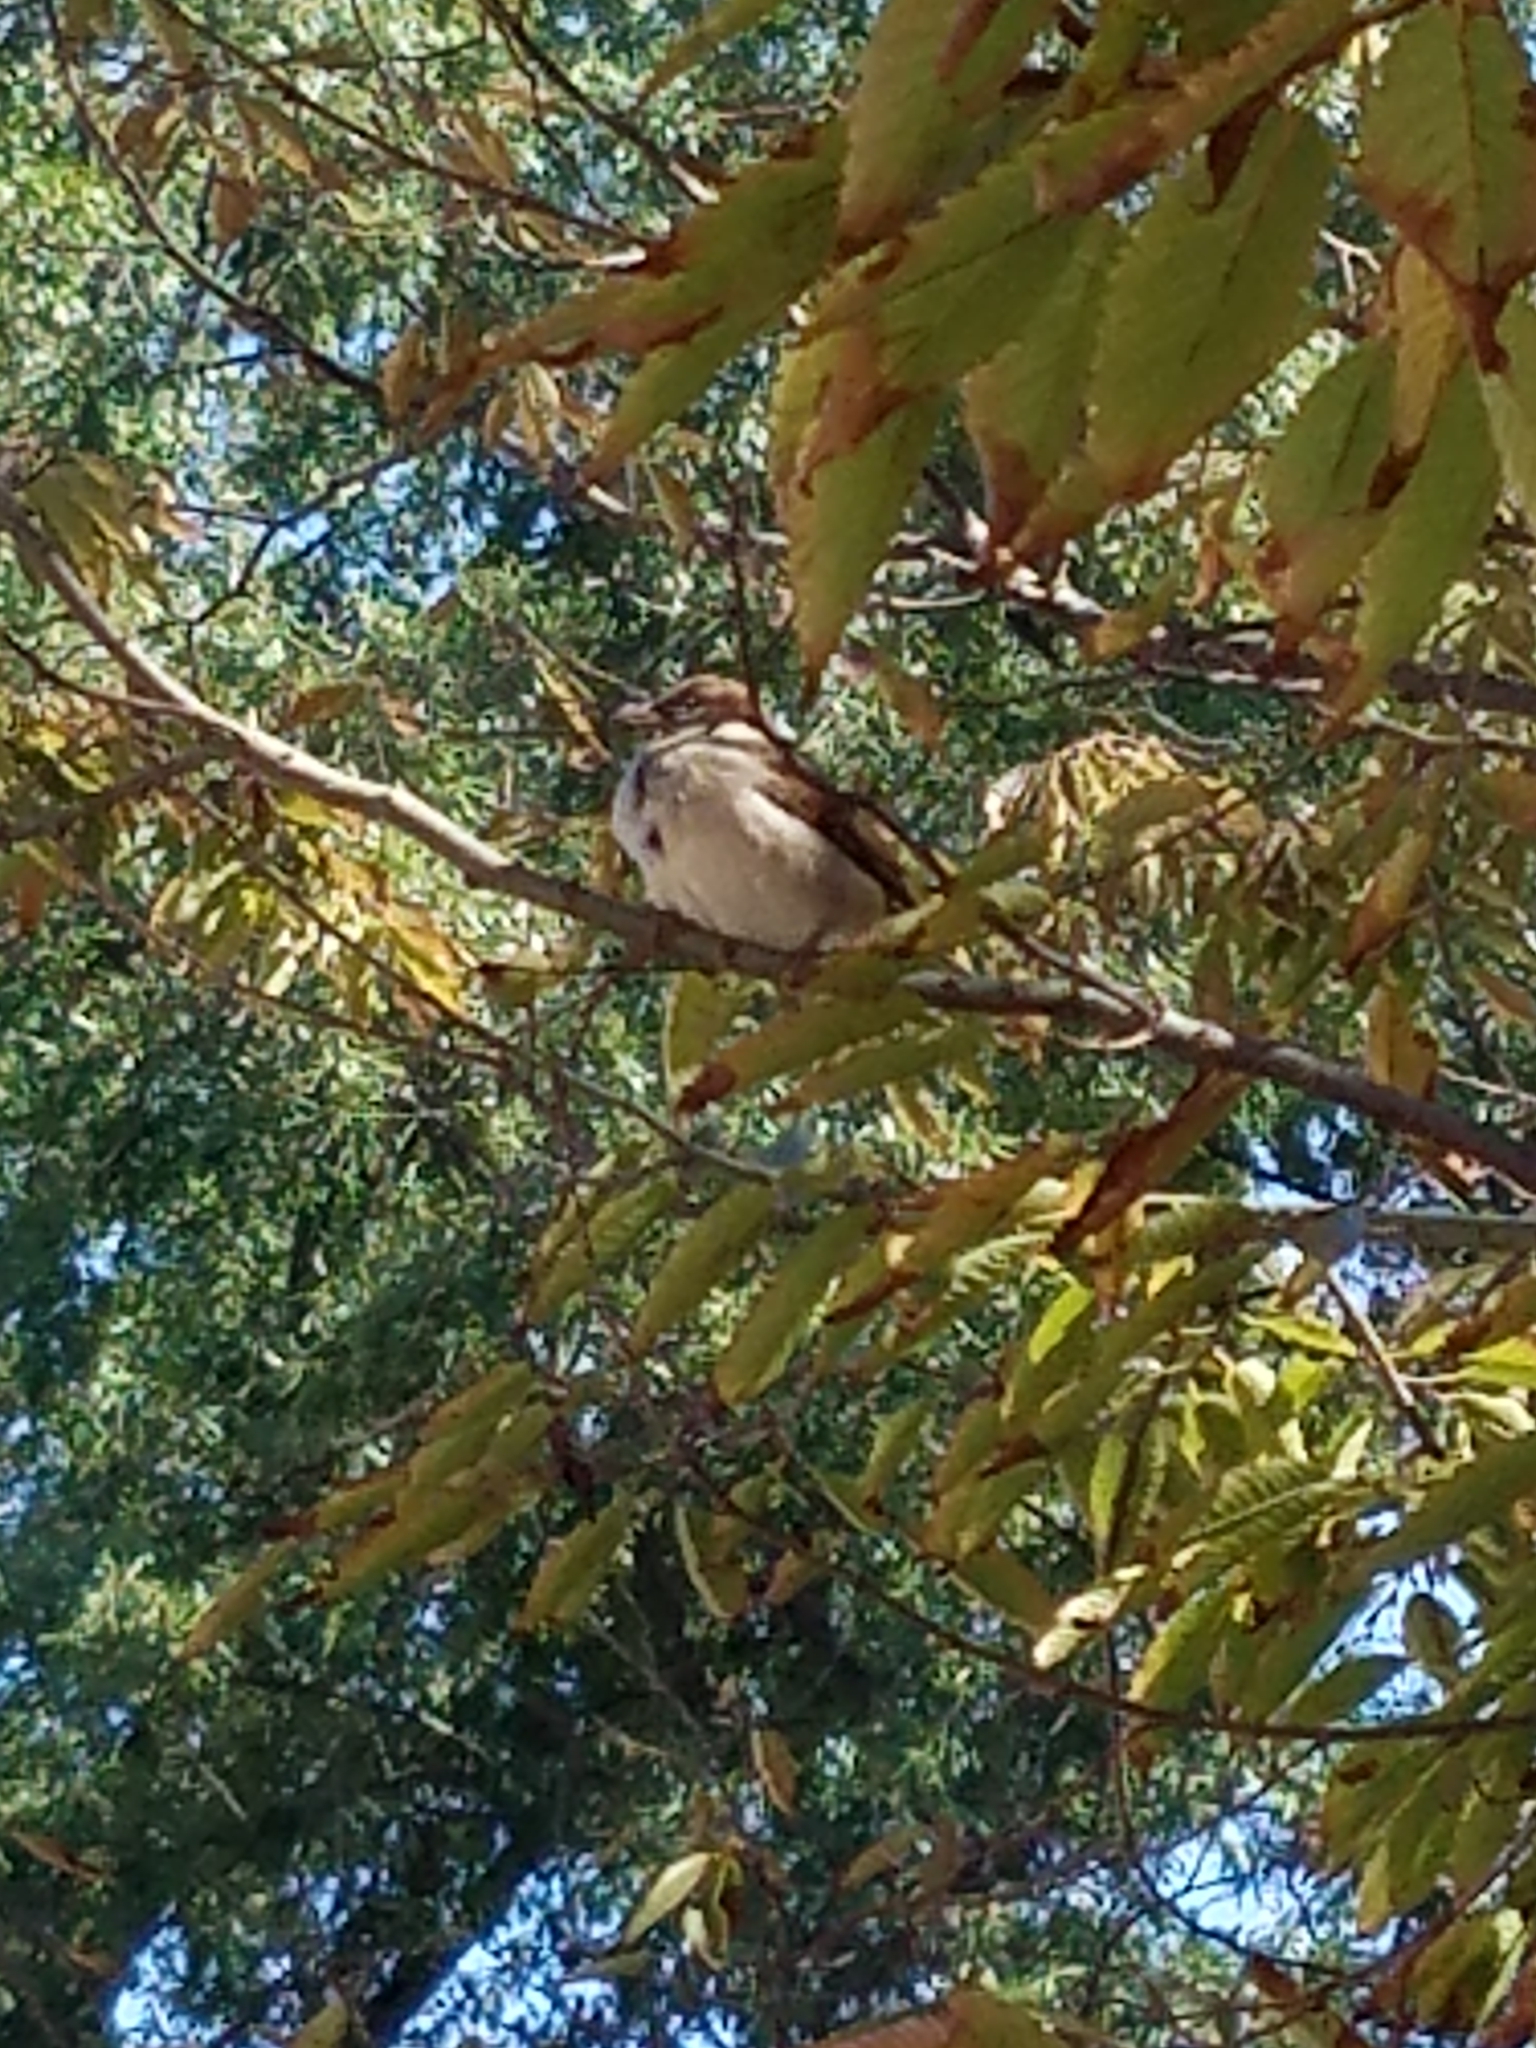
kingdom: Animalia
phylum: Chordata
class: Aves
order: Passeriformes
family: Passeridae
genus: Passer
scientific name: Passer domesticus
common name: House sparrow
